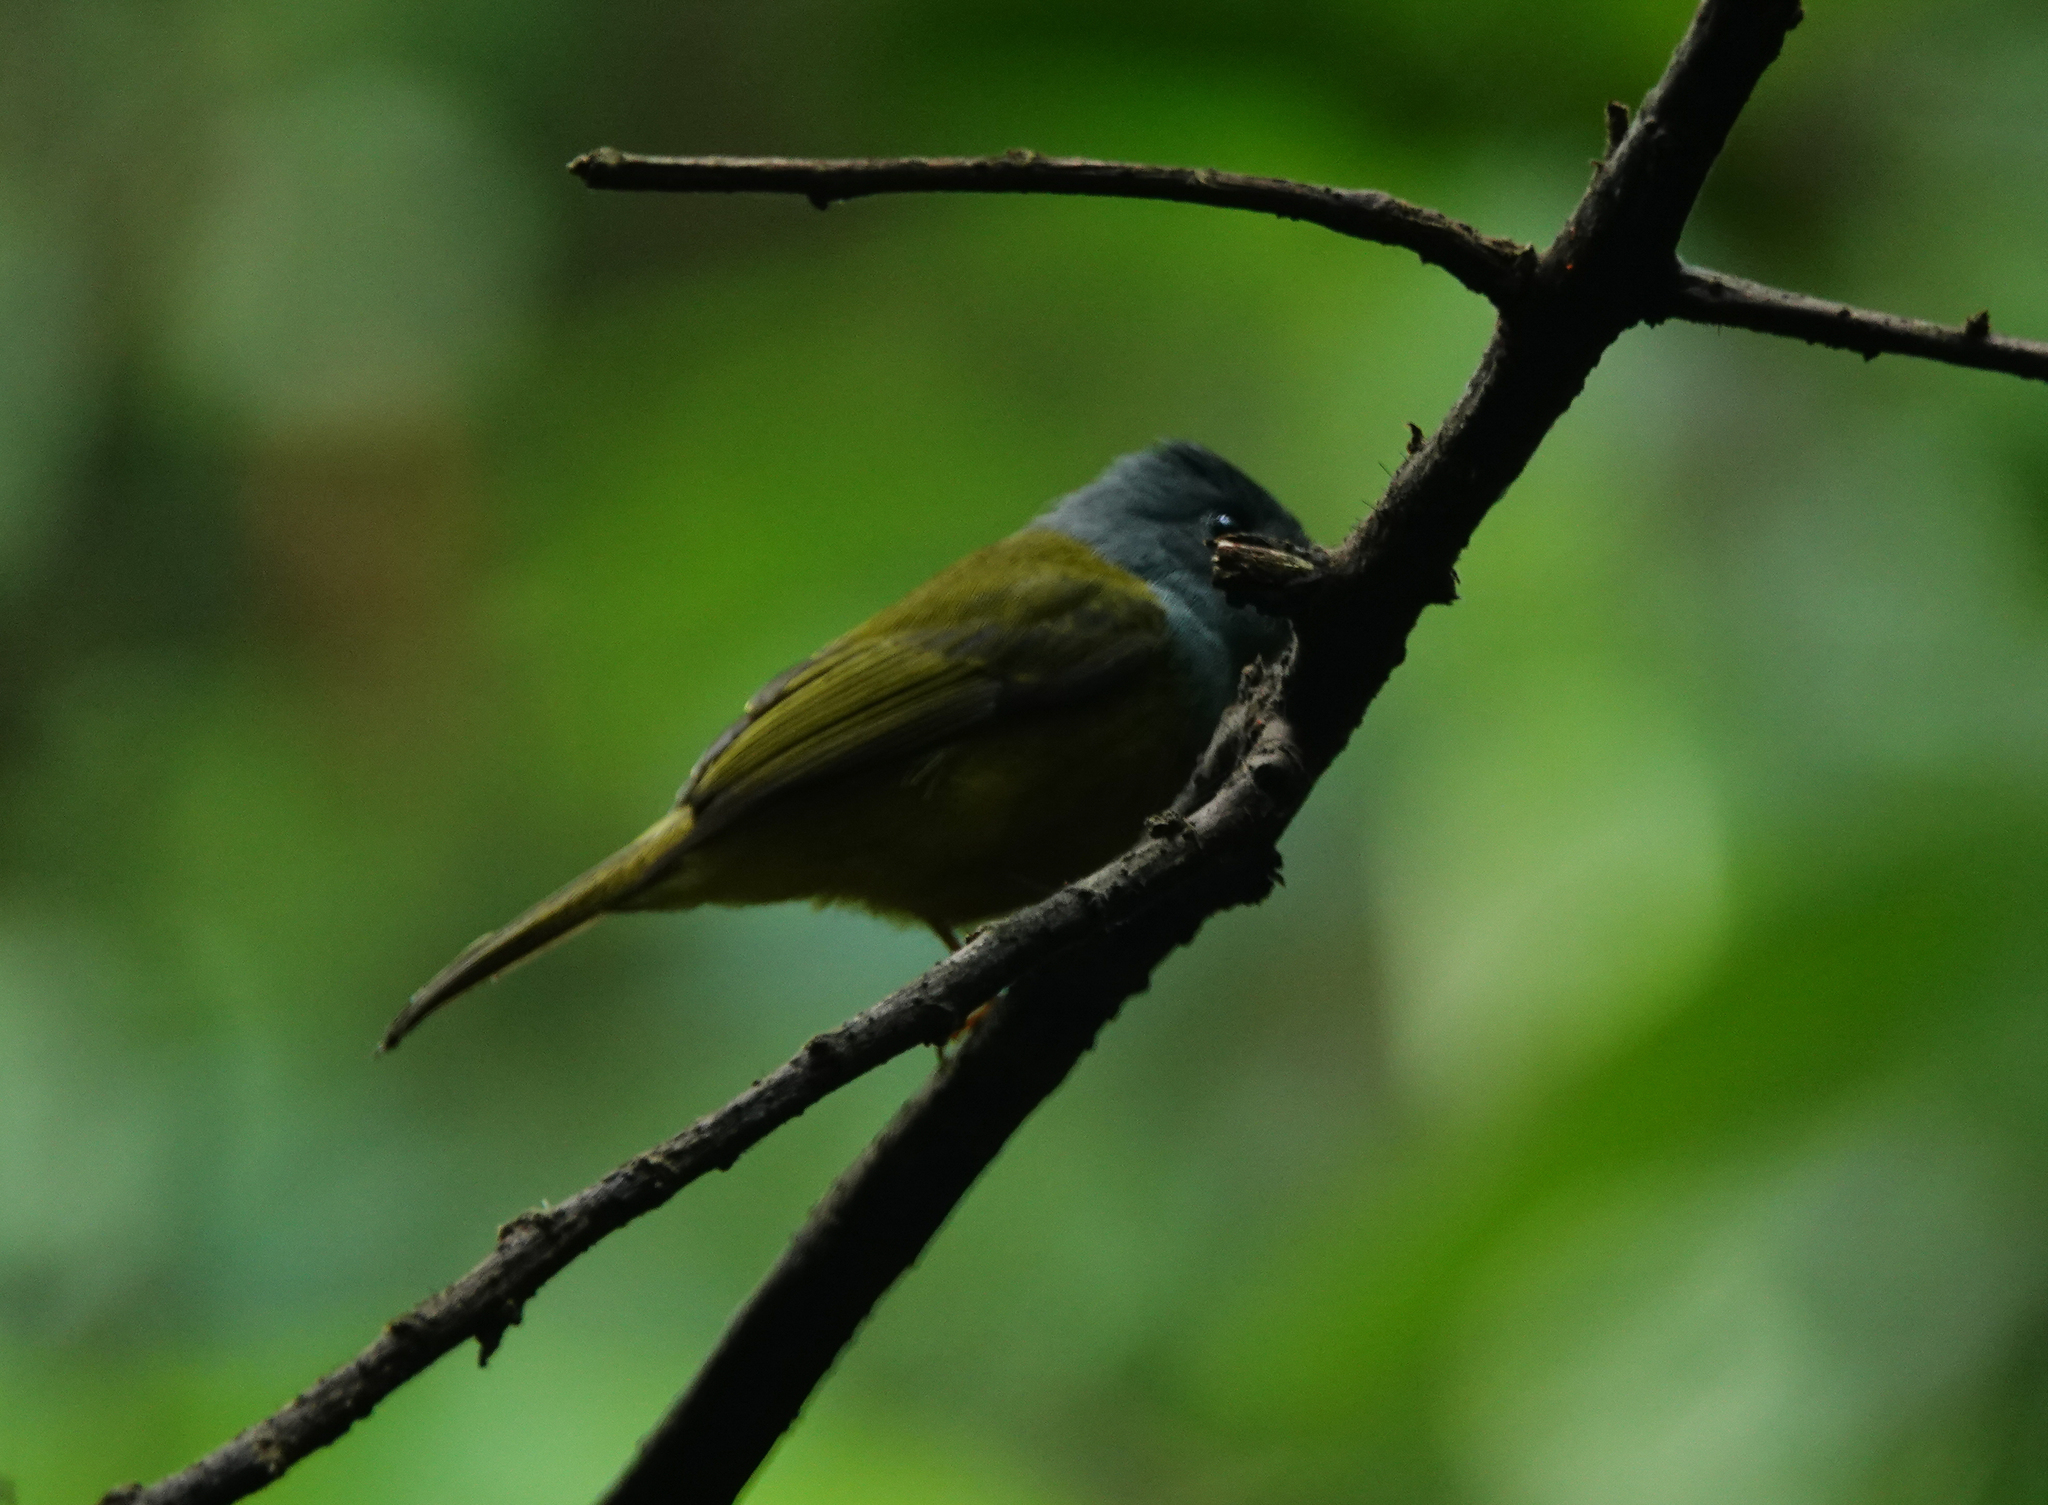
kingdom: Animalia
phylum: Chordata
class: Aves
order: Passeriformes
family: Stenostiridae
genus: Culicicapa
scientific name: Culicicapa ceylonensis
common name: Grey-headed canary-flycatcher
